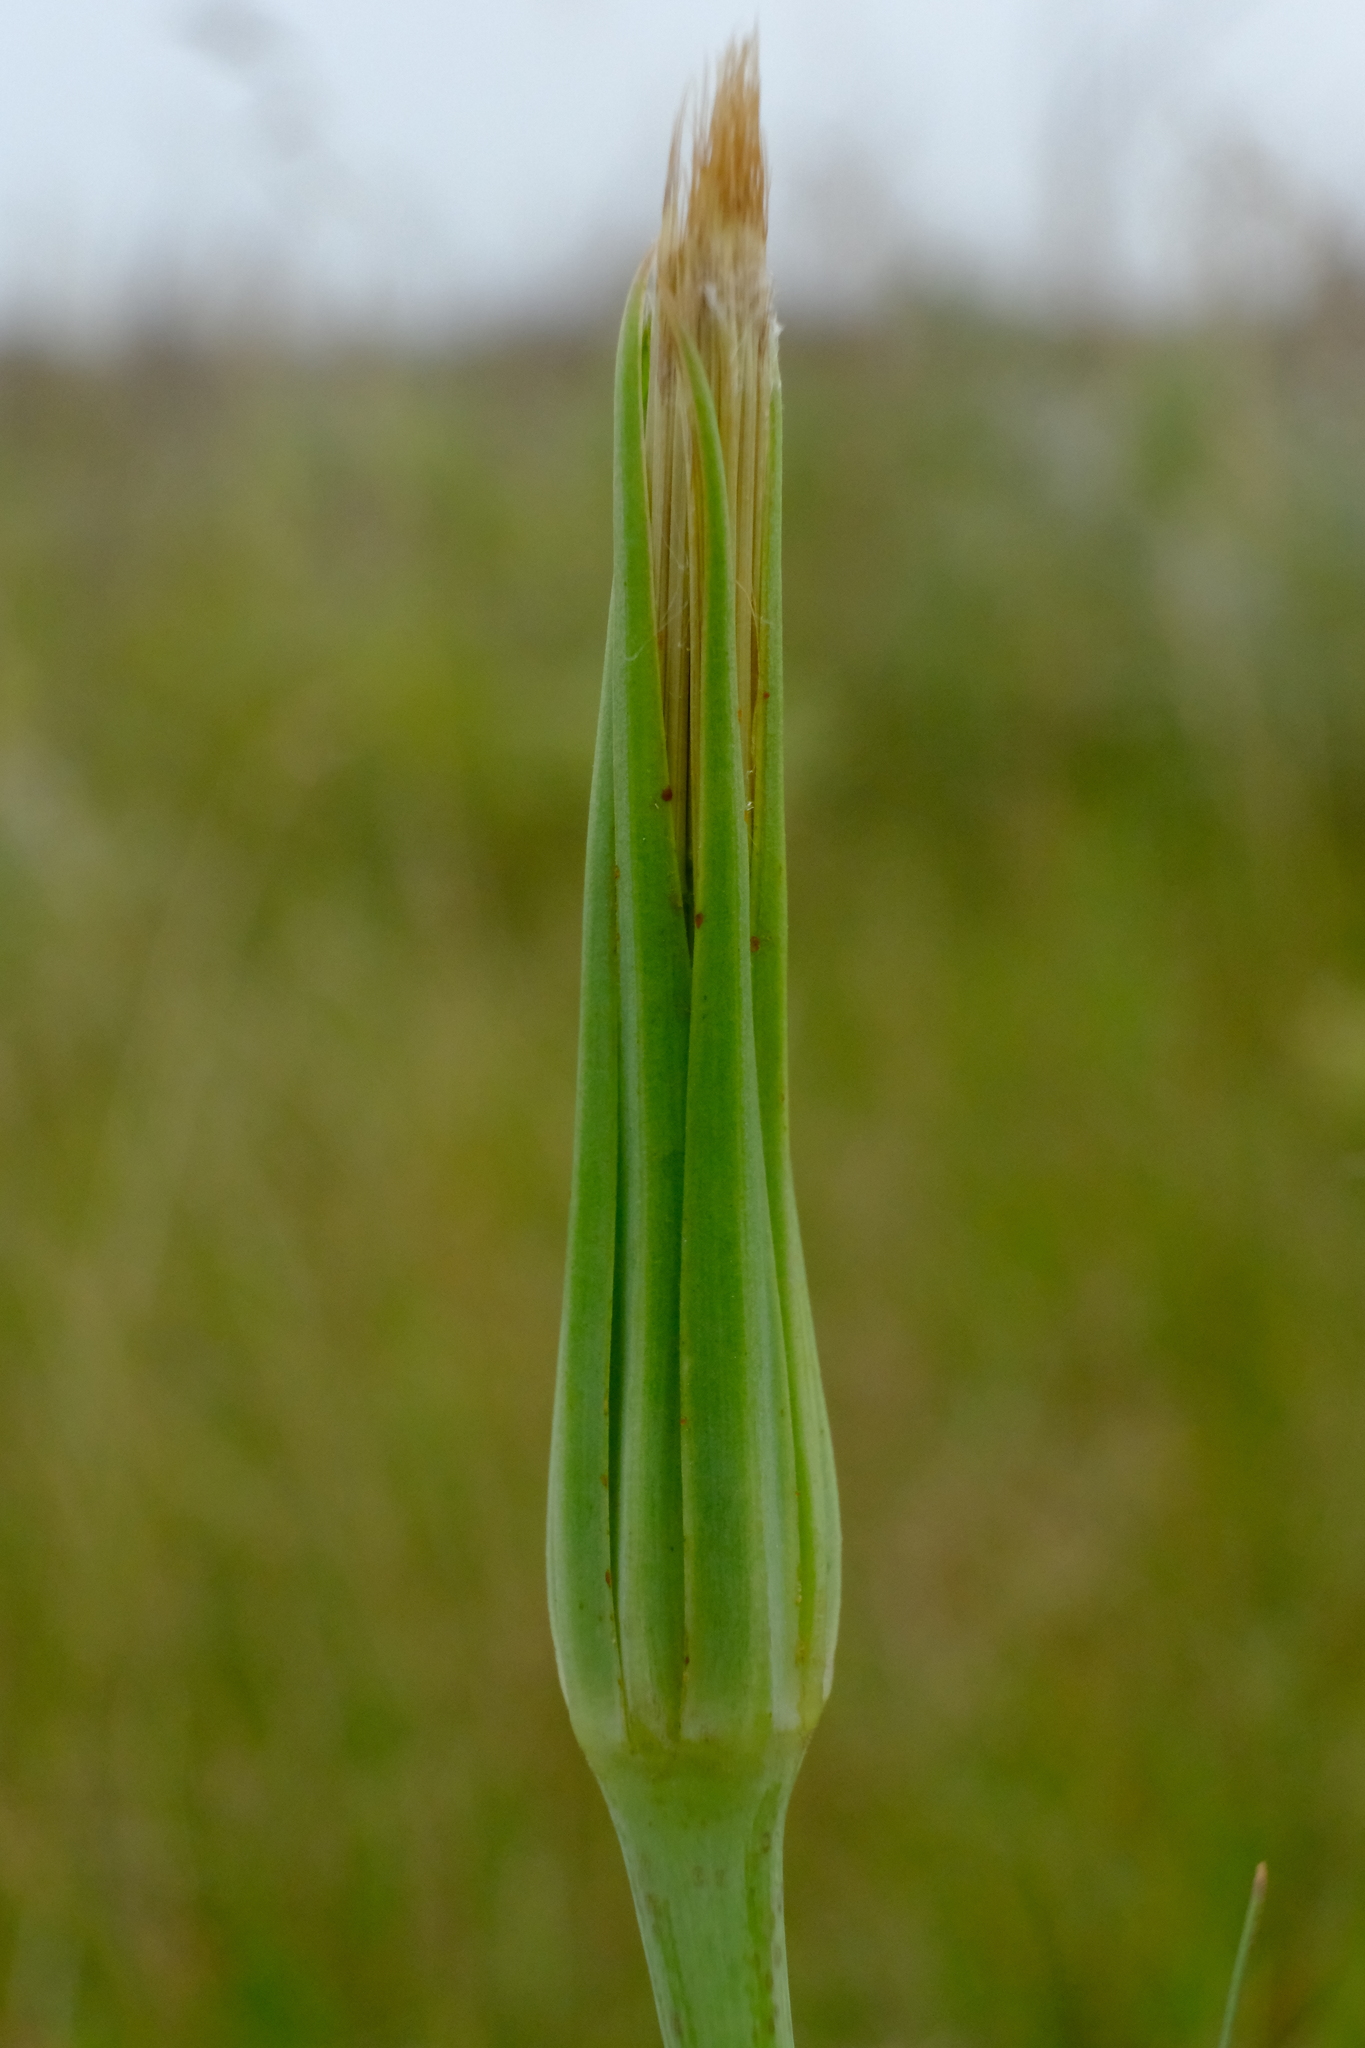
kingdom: Plantae
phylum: Tracheophyta
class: Magnoliopsida
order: Asterales
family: Asteraceae
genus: Tragopogon
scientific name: Tragopogon dubius
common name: Yellow salsify
